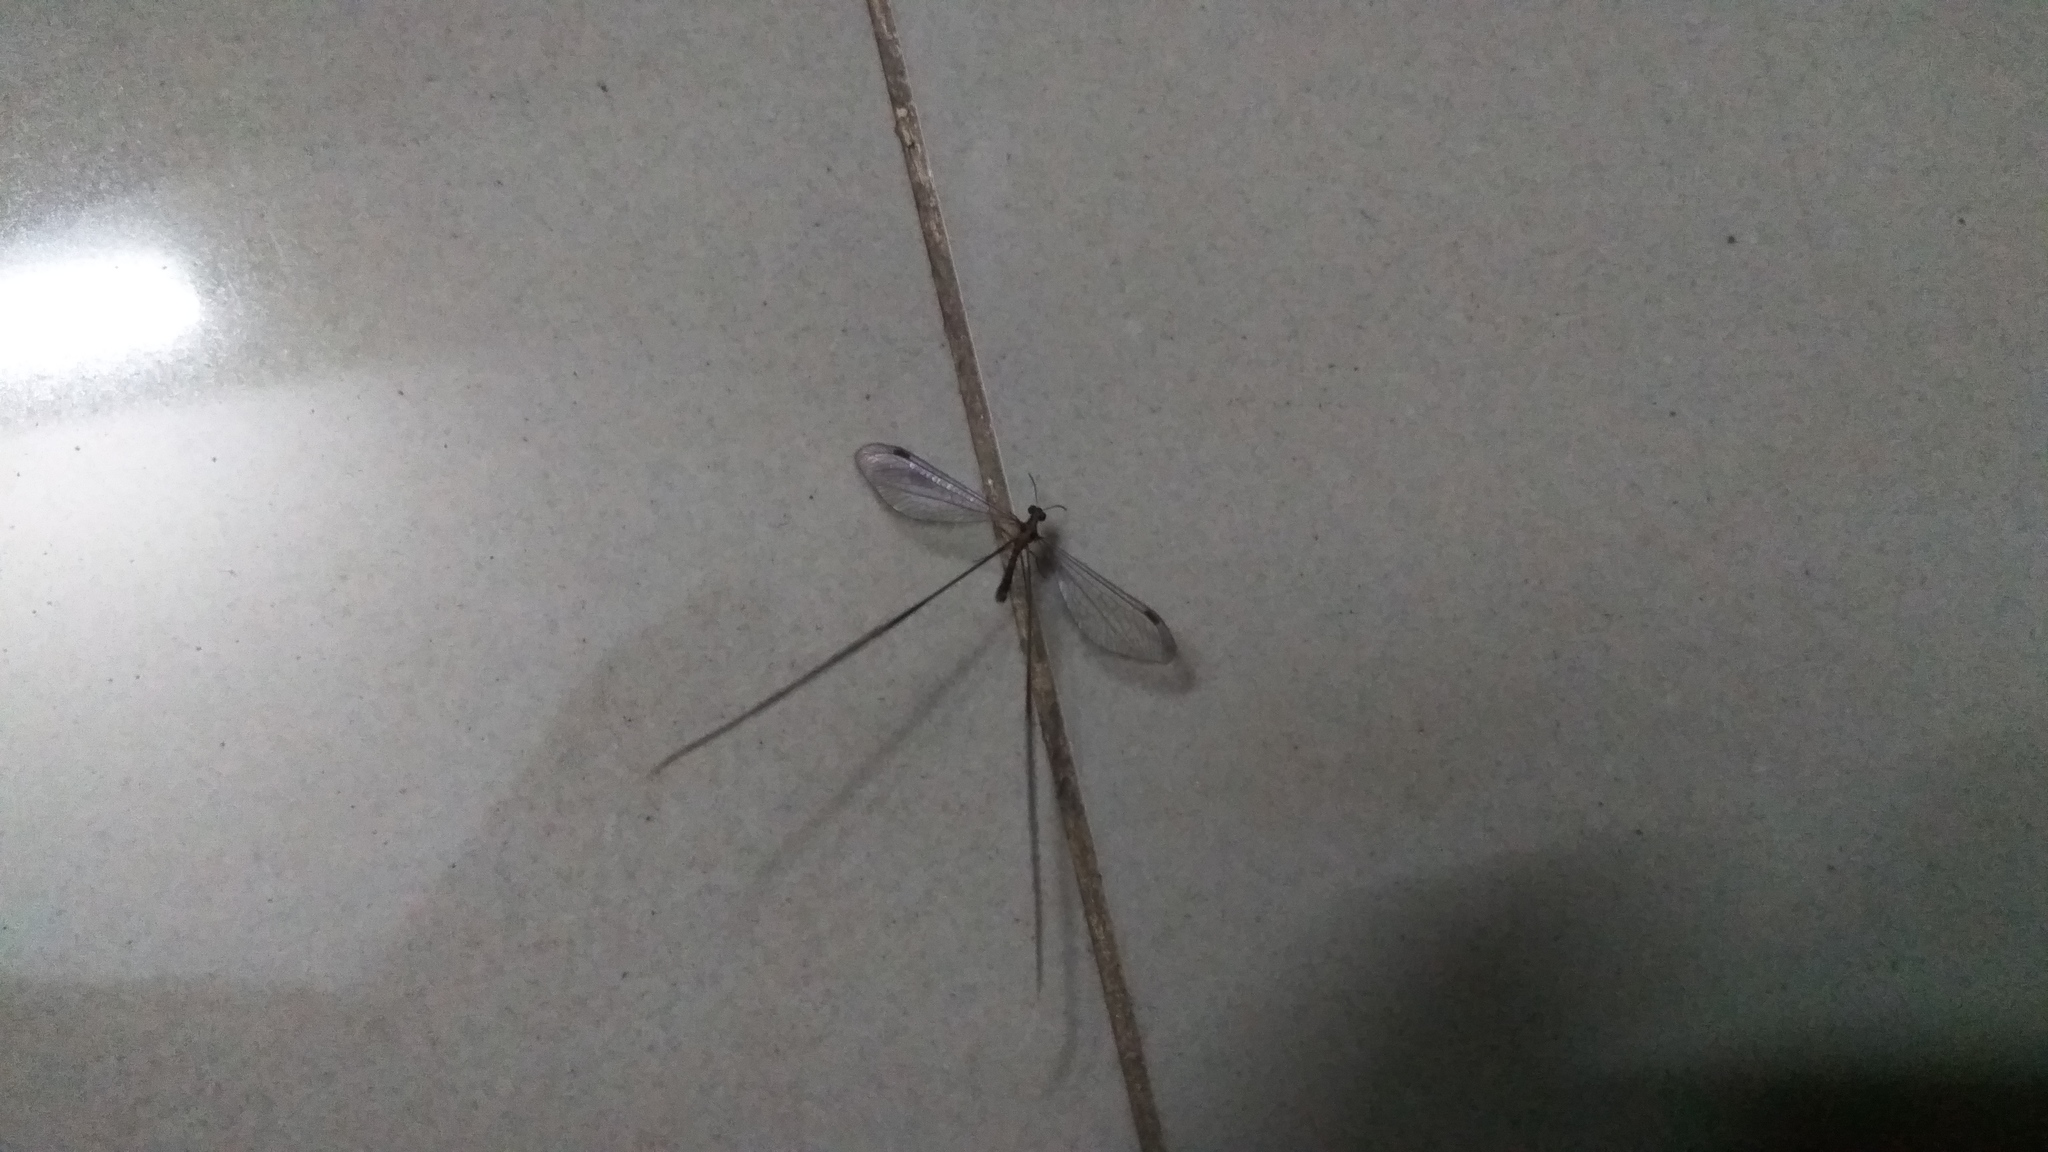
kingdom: Animalia
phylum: Arthropoda
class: Insecta
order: Neuroptera
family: Nemopteridae
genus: Croce
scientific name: Croce filipennis
